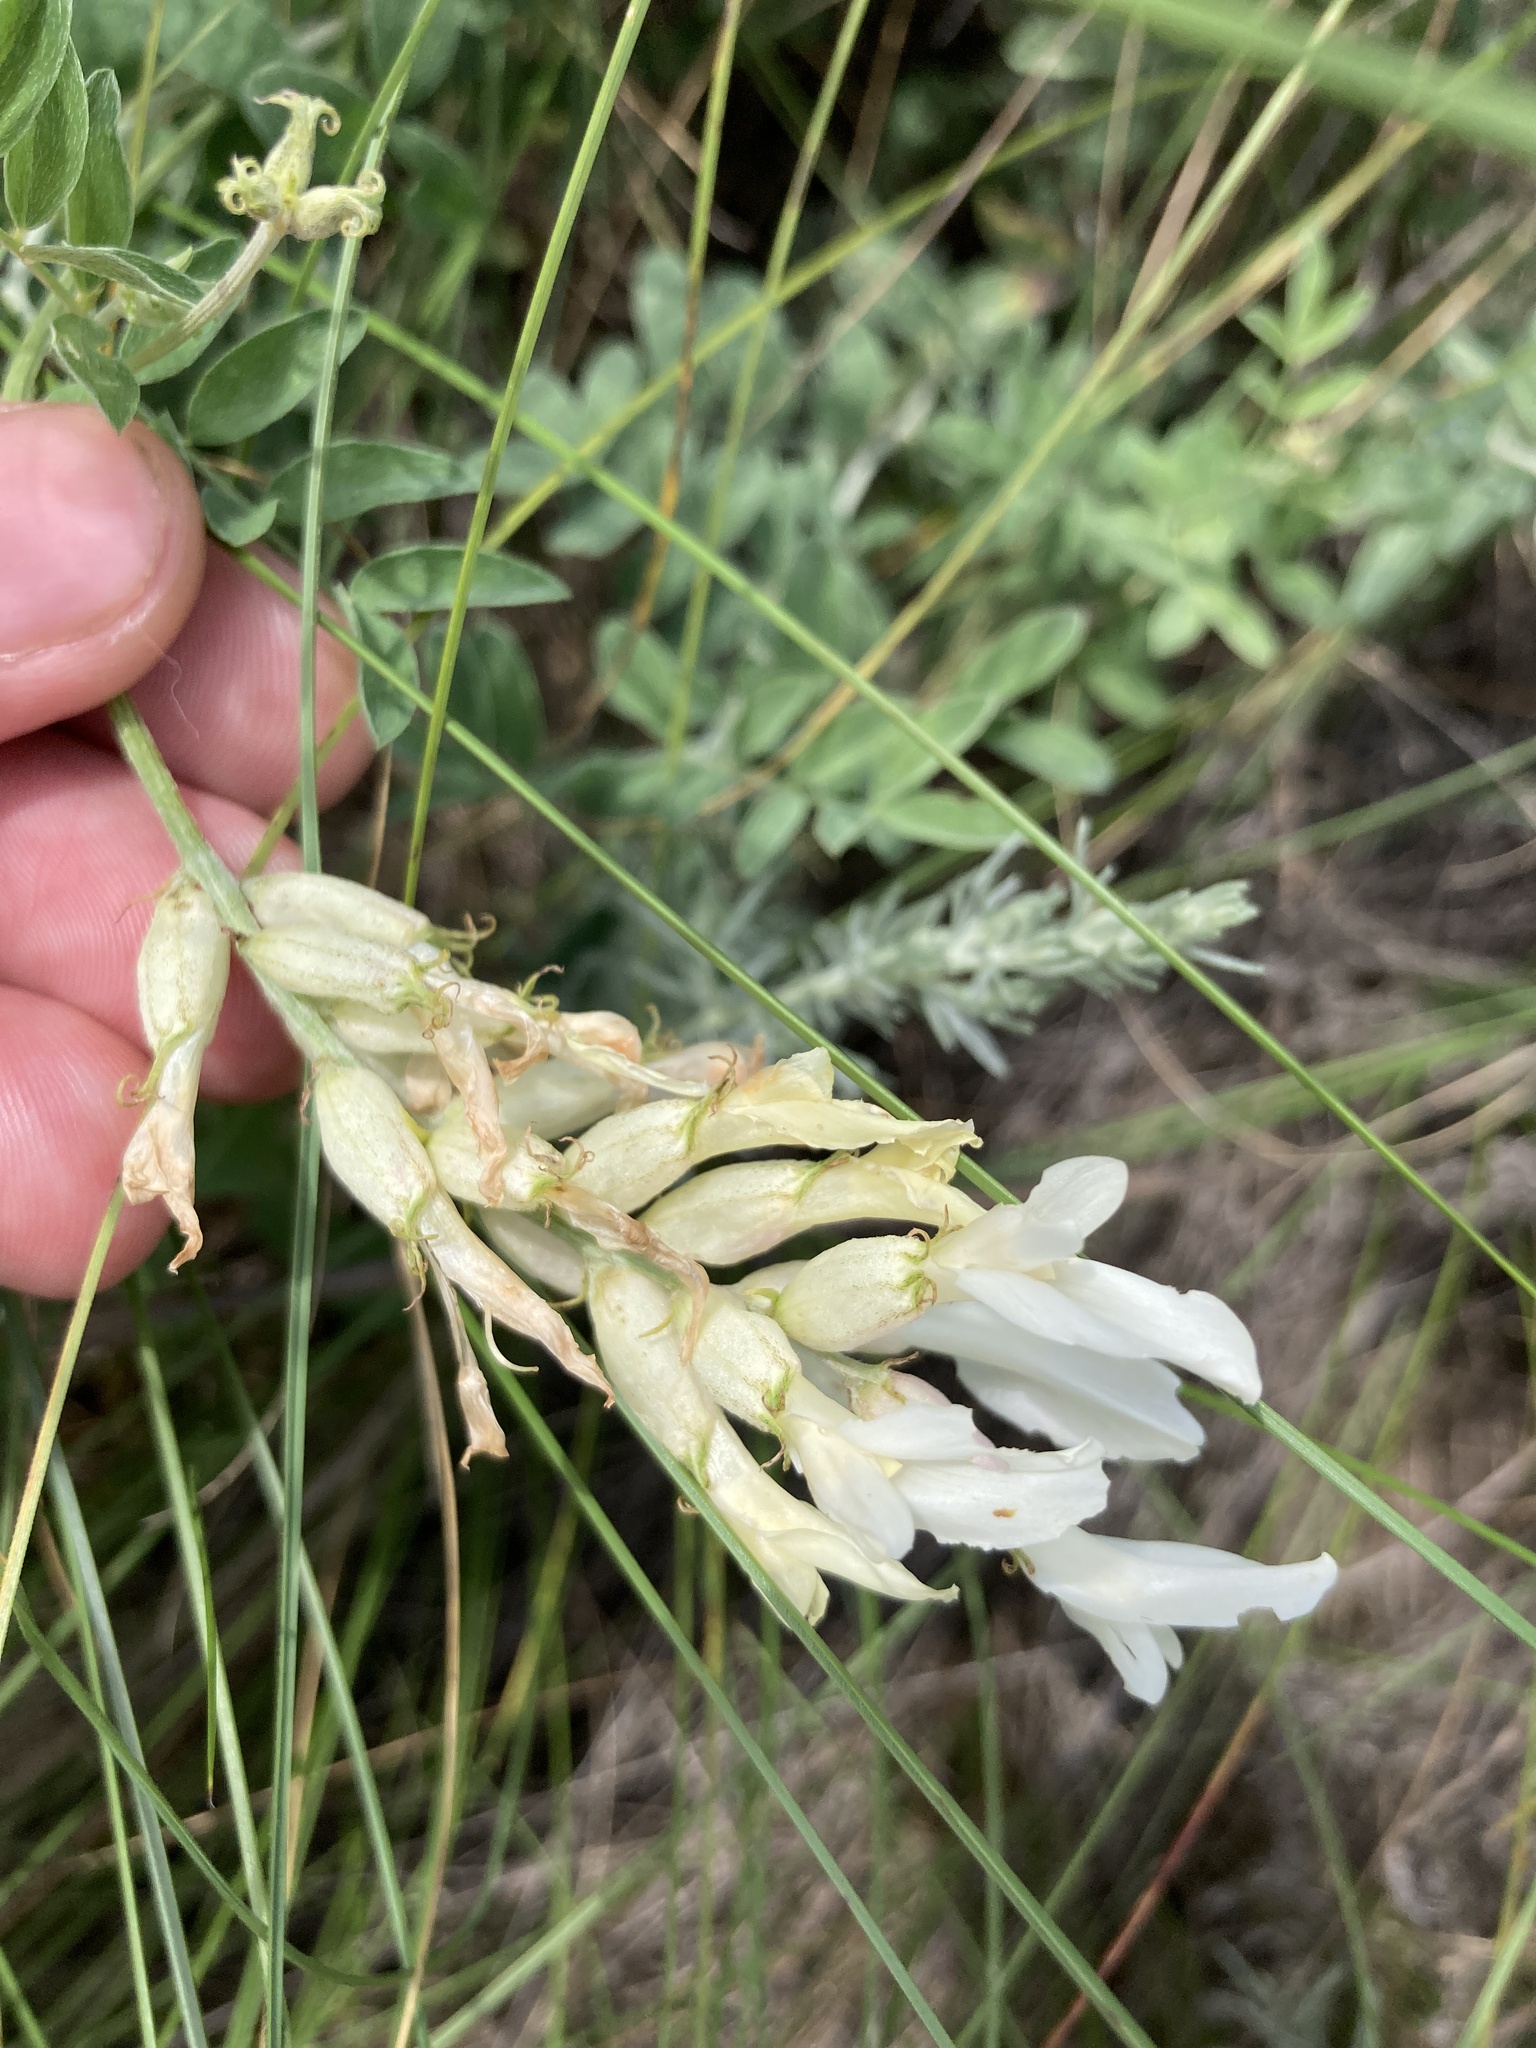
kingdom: Plantae
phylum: Tracheophyta
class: Magnoliopsida
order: Fabales
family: Fabaceae
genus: Astragalus
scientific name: Astragalus albicaulis
